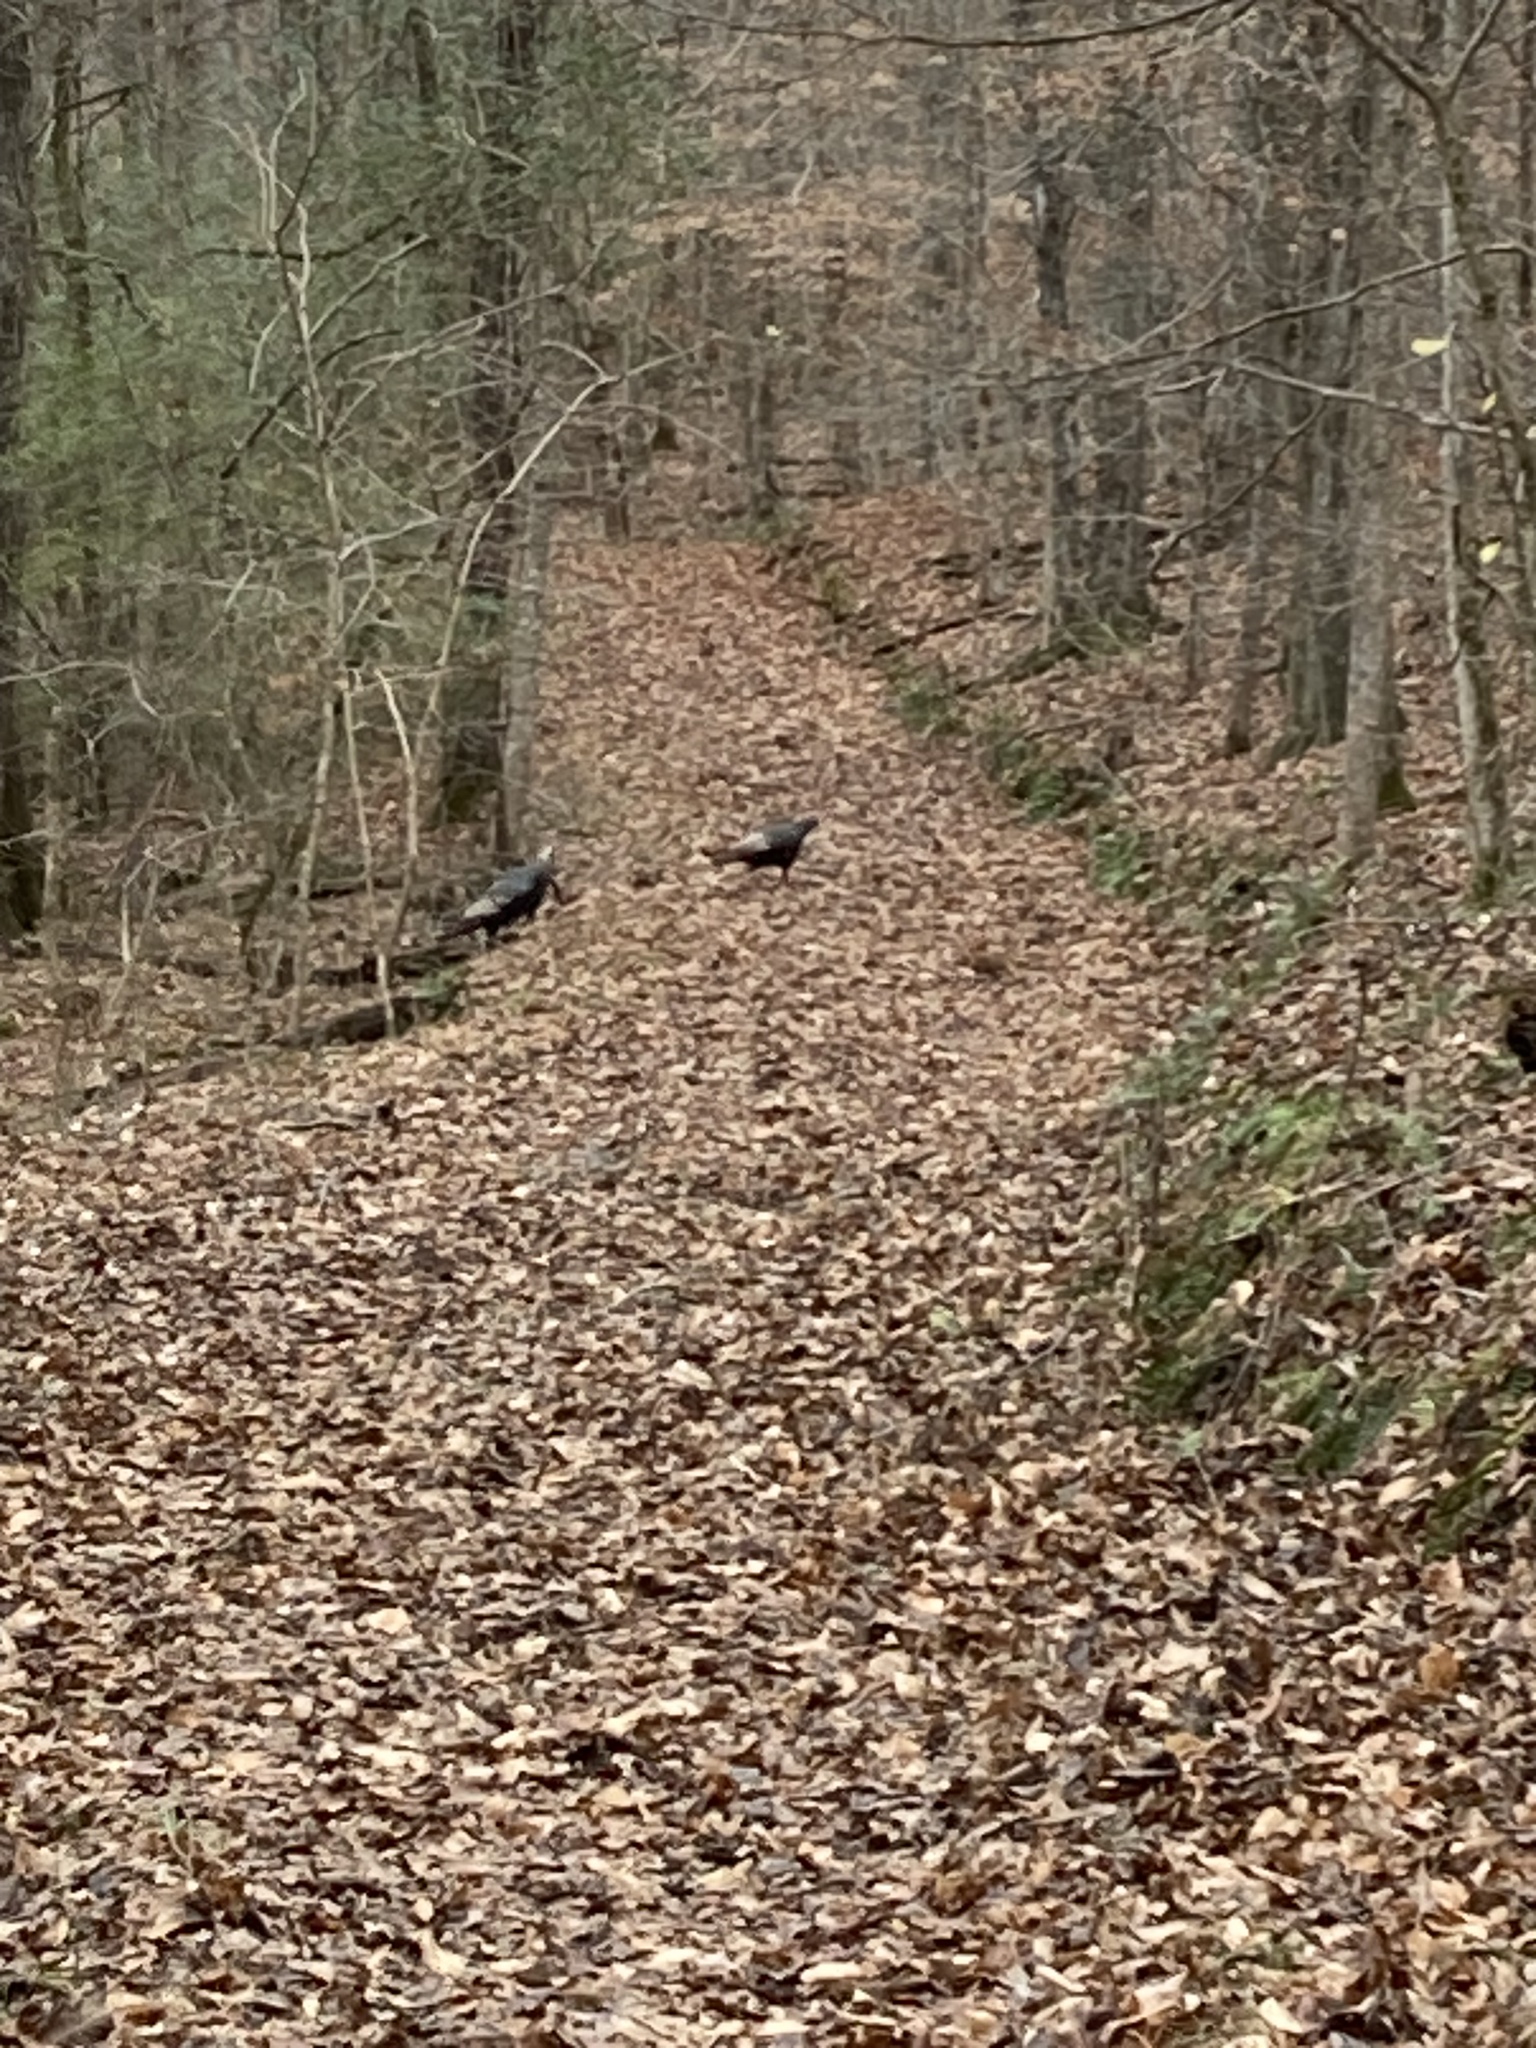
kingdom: Animalia
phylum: Chordata
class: Aves
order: Galliformes
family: Phasianidae
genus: Meleagris
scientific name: Meleagris gallopavo
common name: Wild turkey
